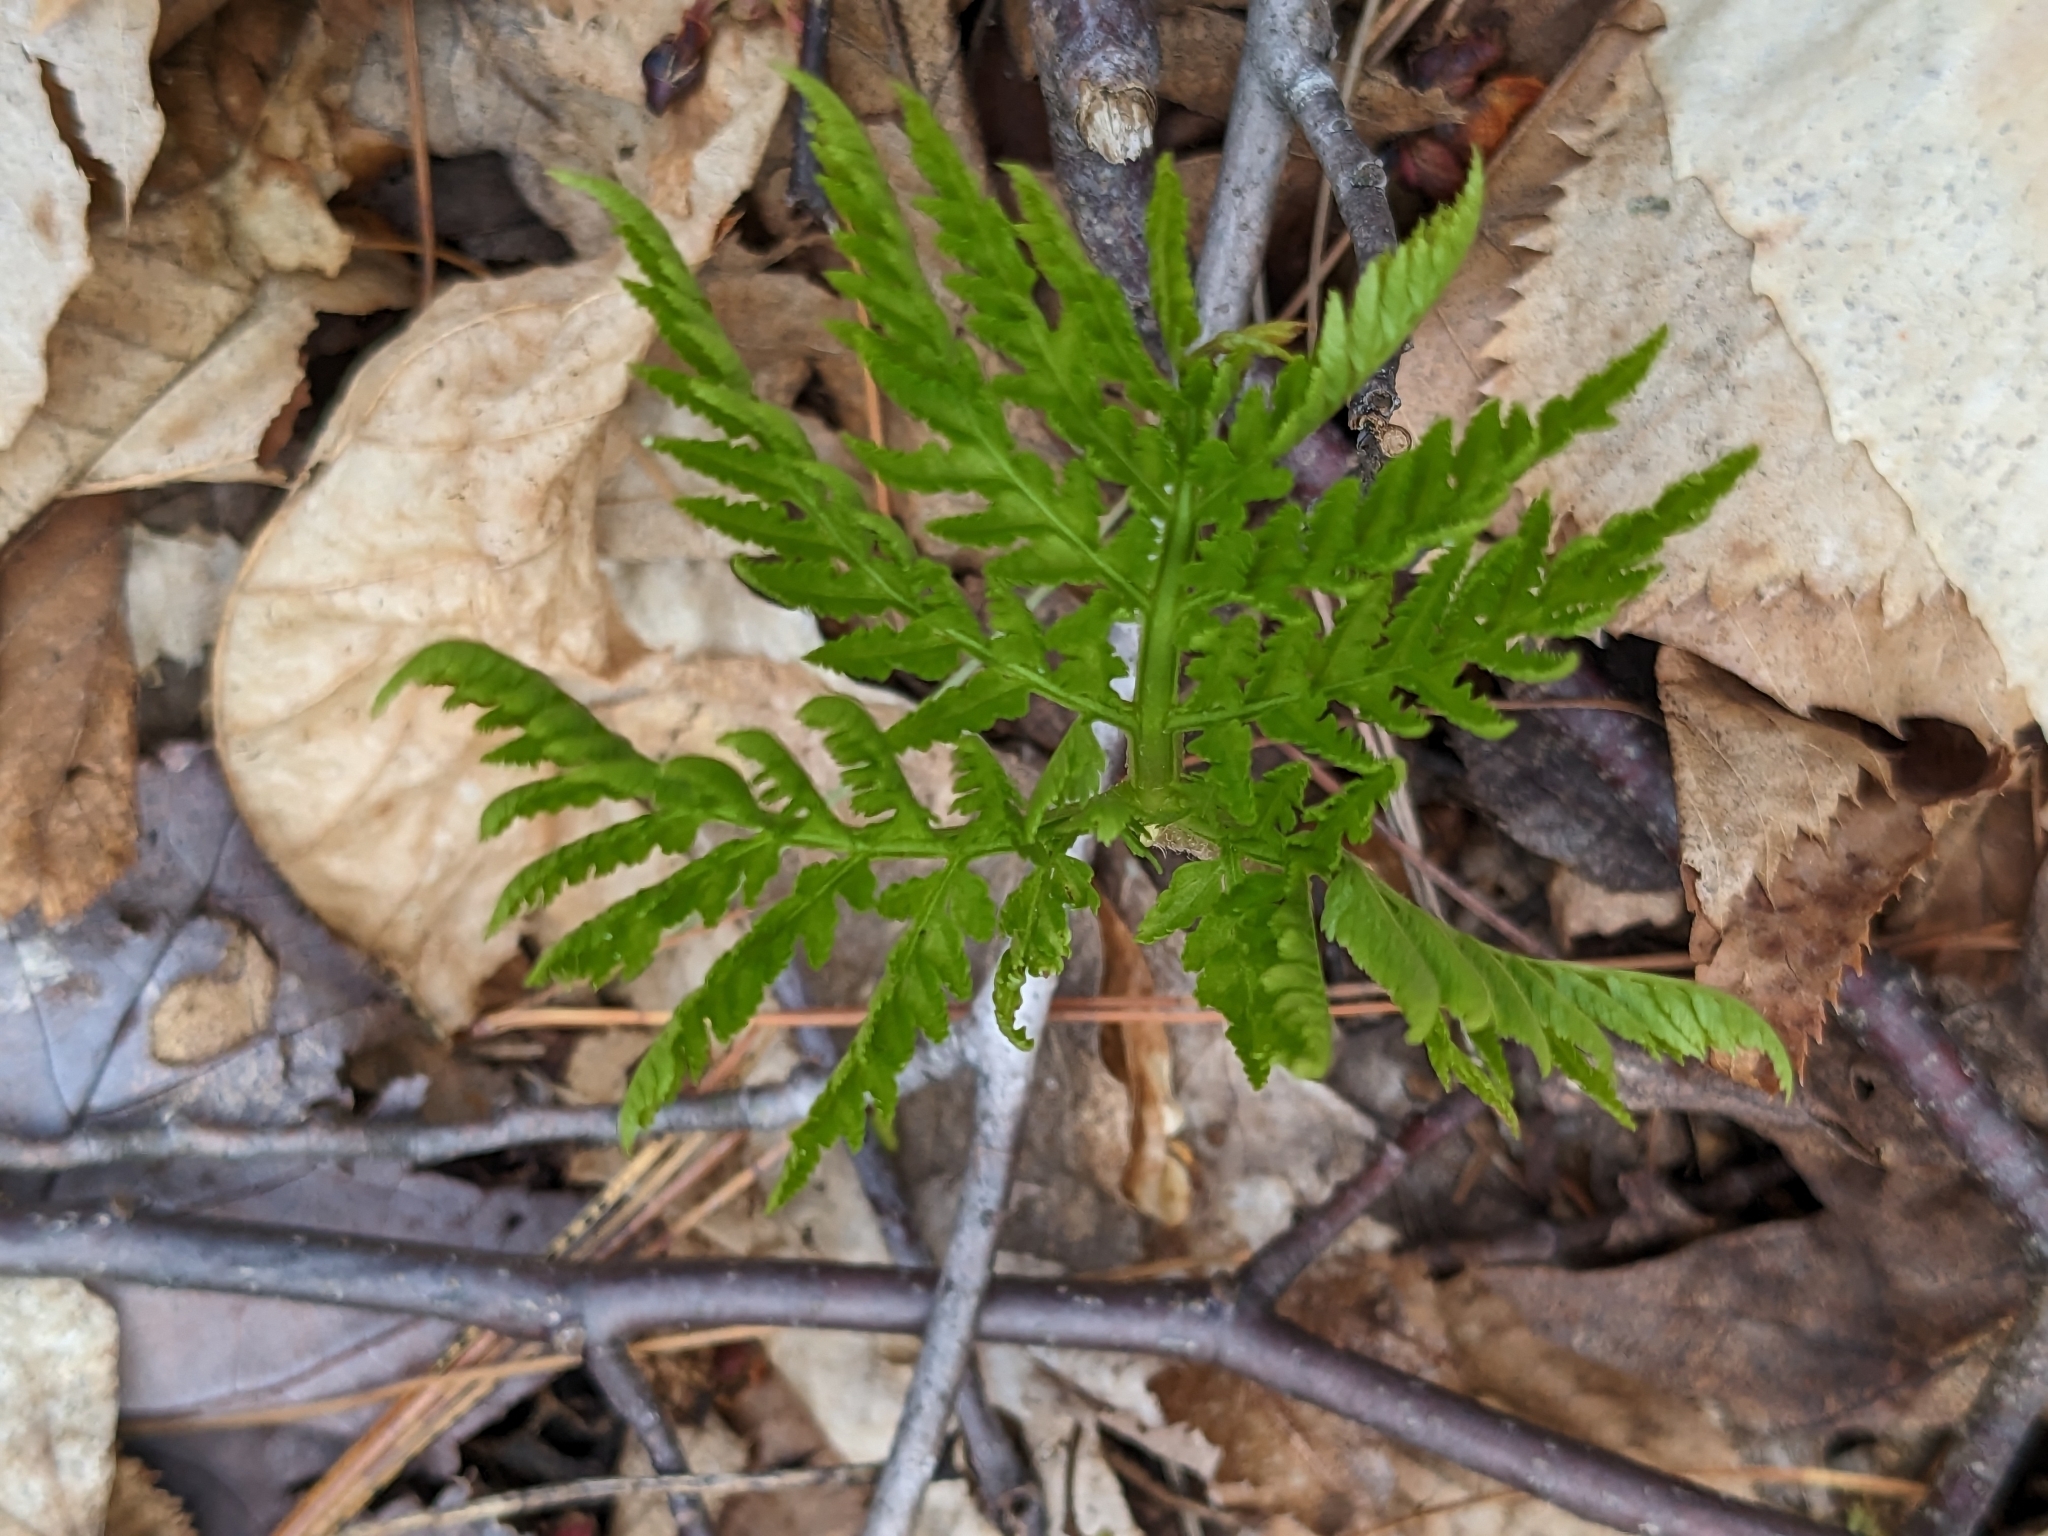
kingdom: Plantae
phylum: Tracheophyta
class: Polypodiopsida
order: Ophioglossales
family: Ophioglossaceae
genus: Botrypus
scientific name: Botrypus virginianus
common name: Common grapefern
